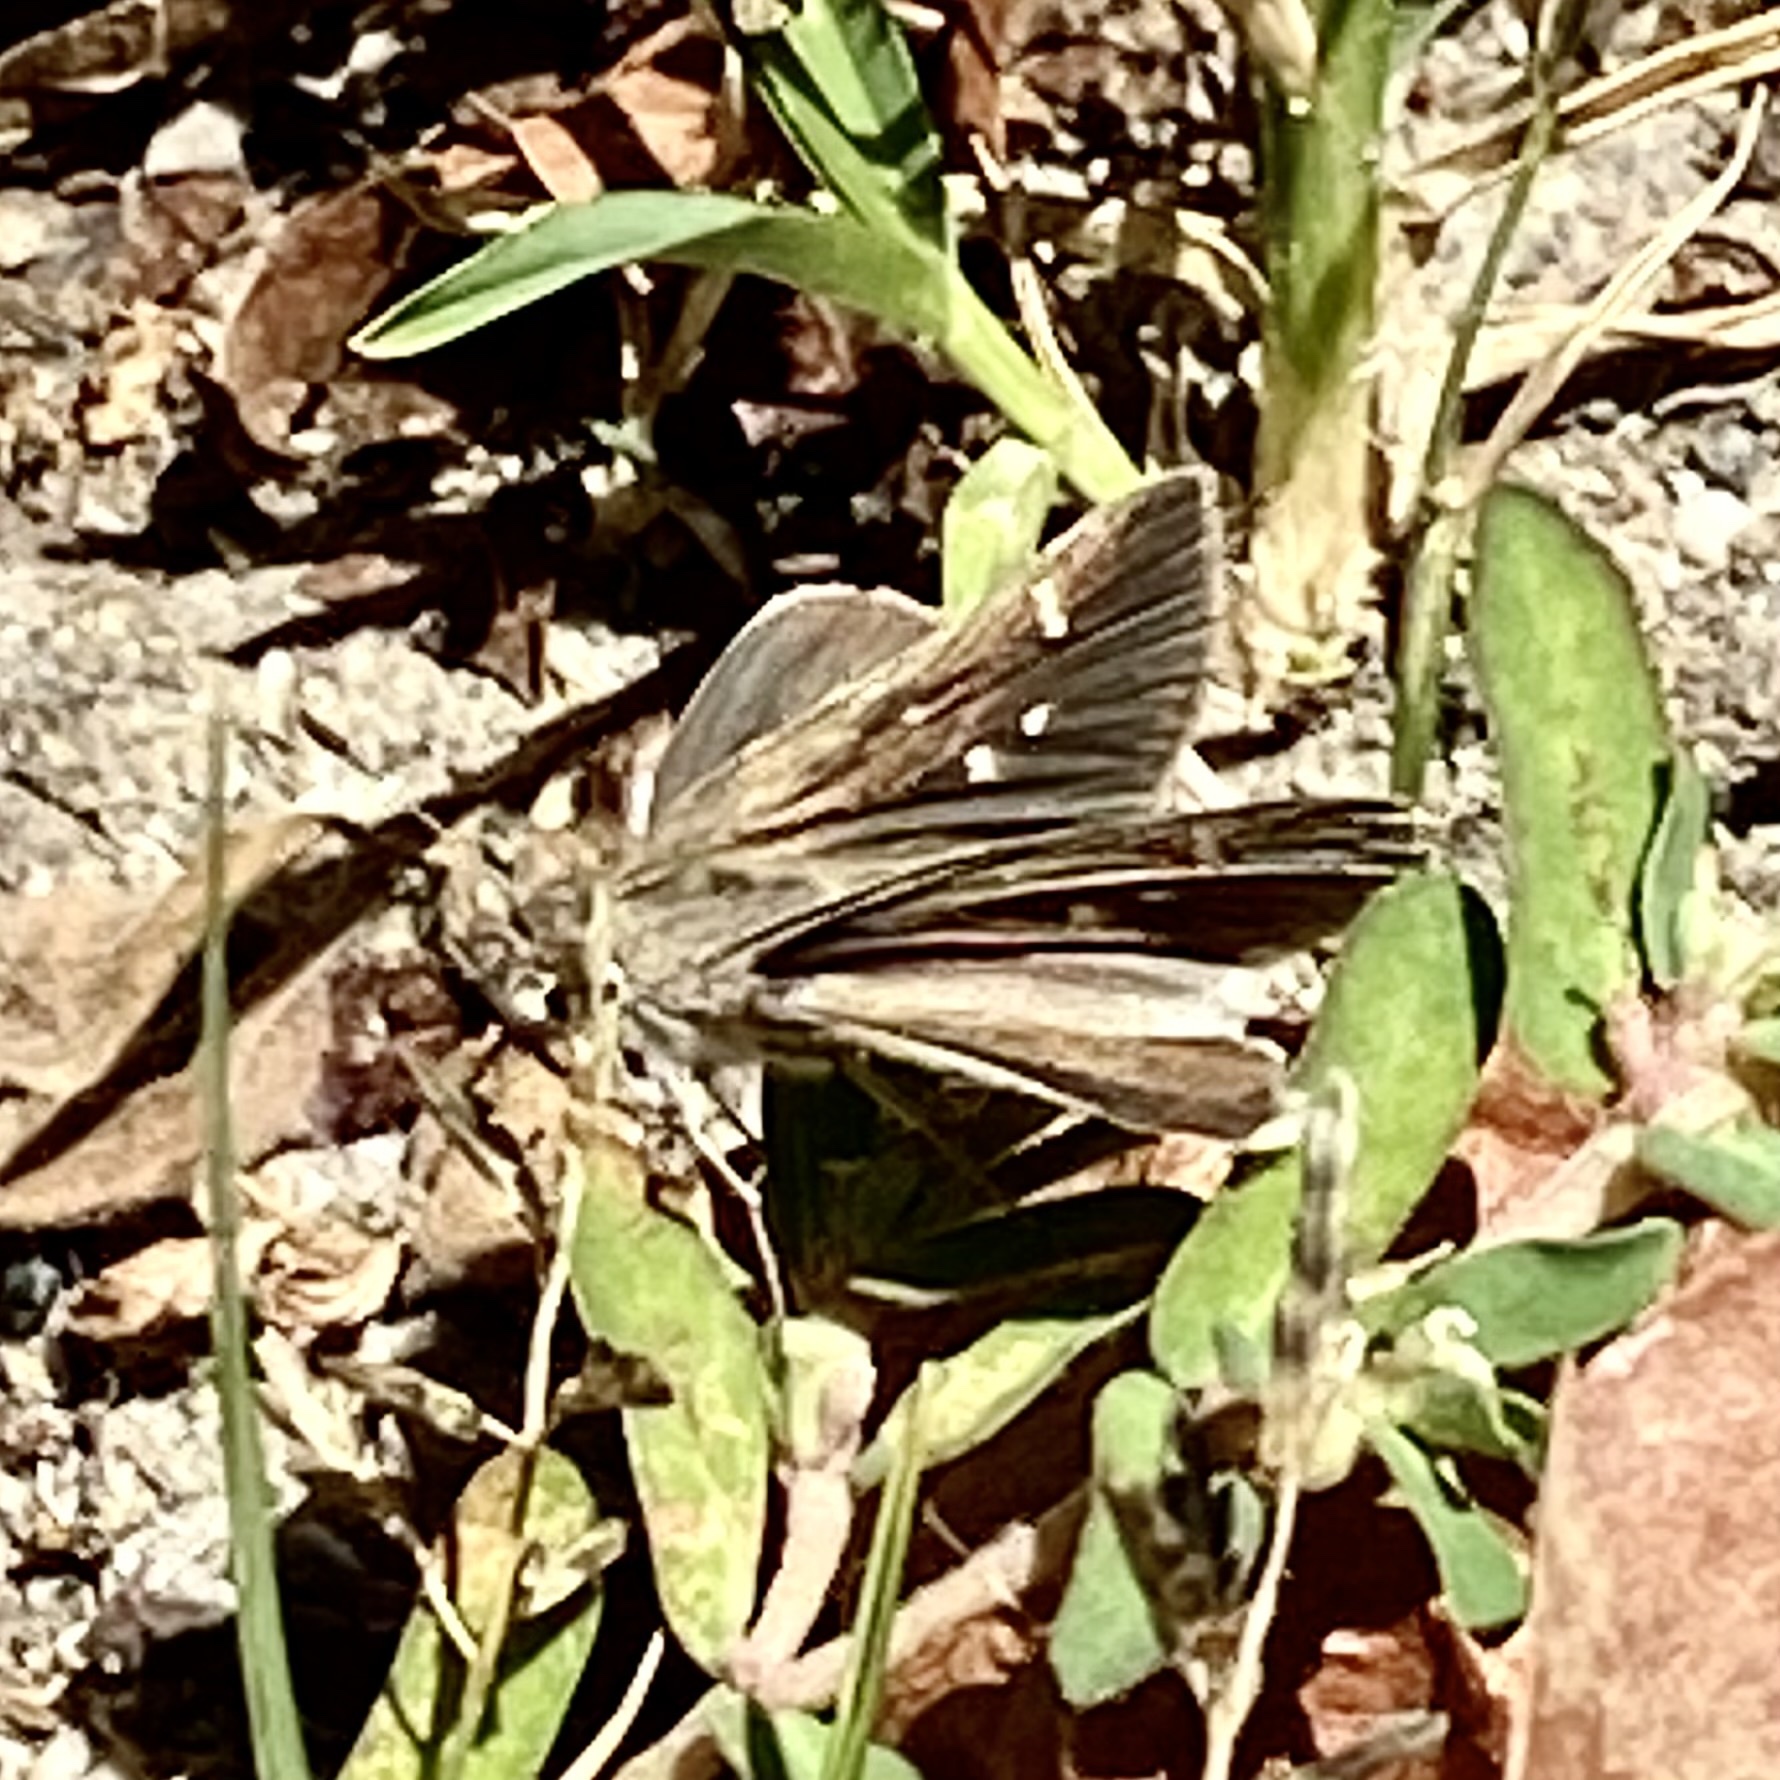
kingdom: Animalia
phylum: Arthropoda
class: Insecta
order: Lepidoptera
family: Hesperiidae
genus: Lerodea
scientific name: Lerodea eufala
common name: Eufala skipper
